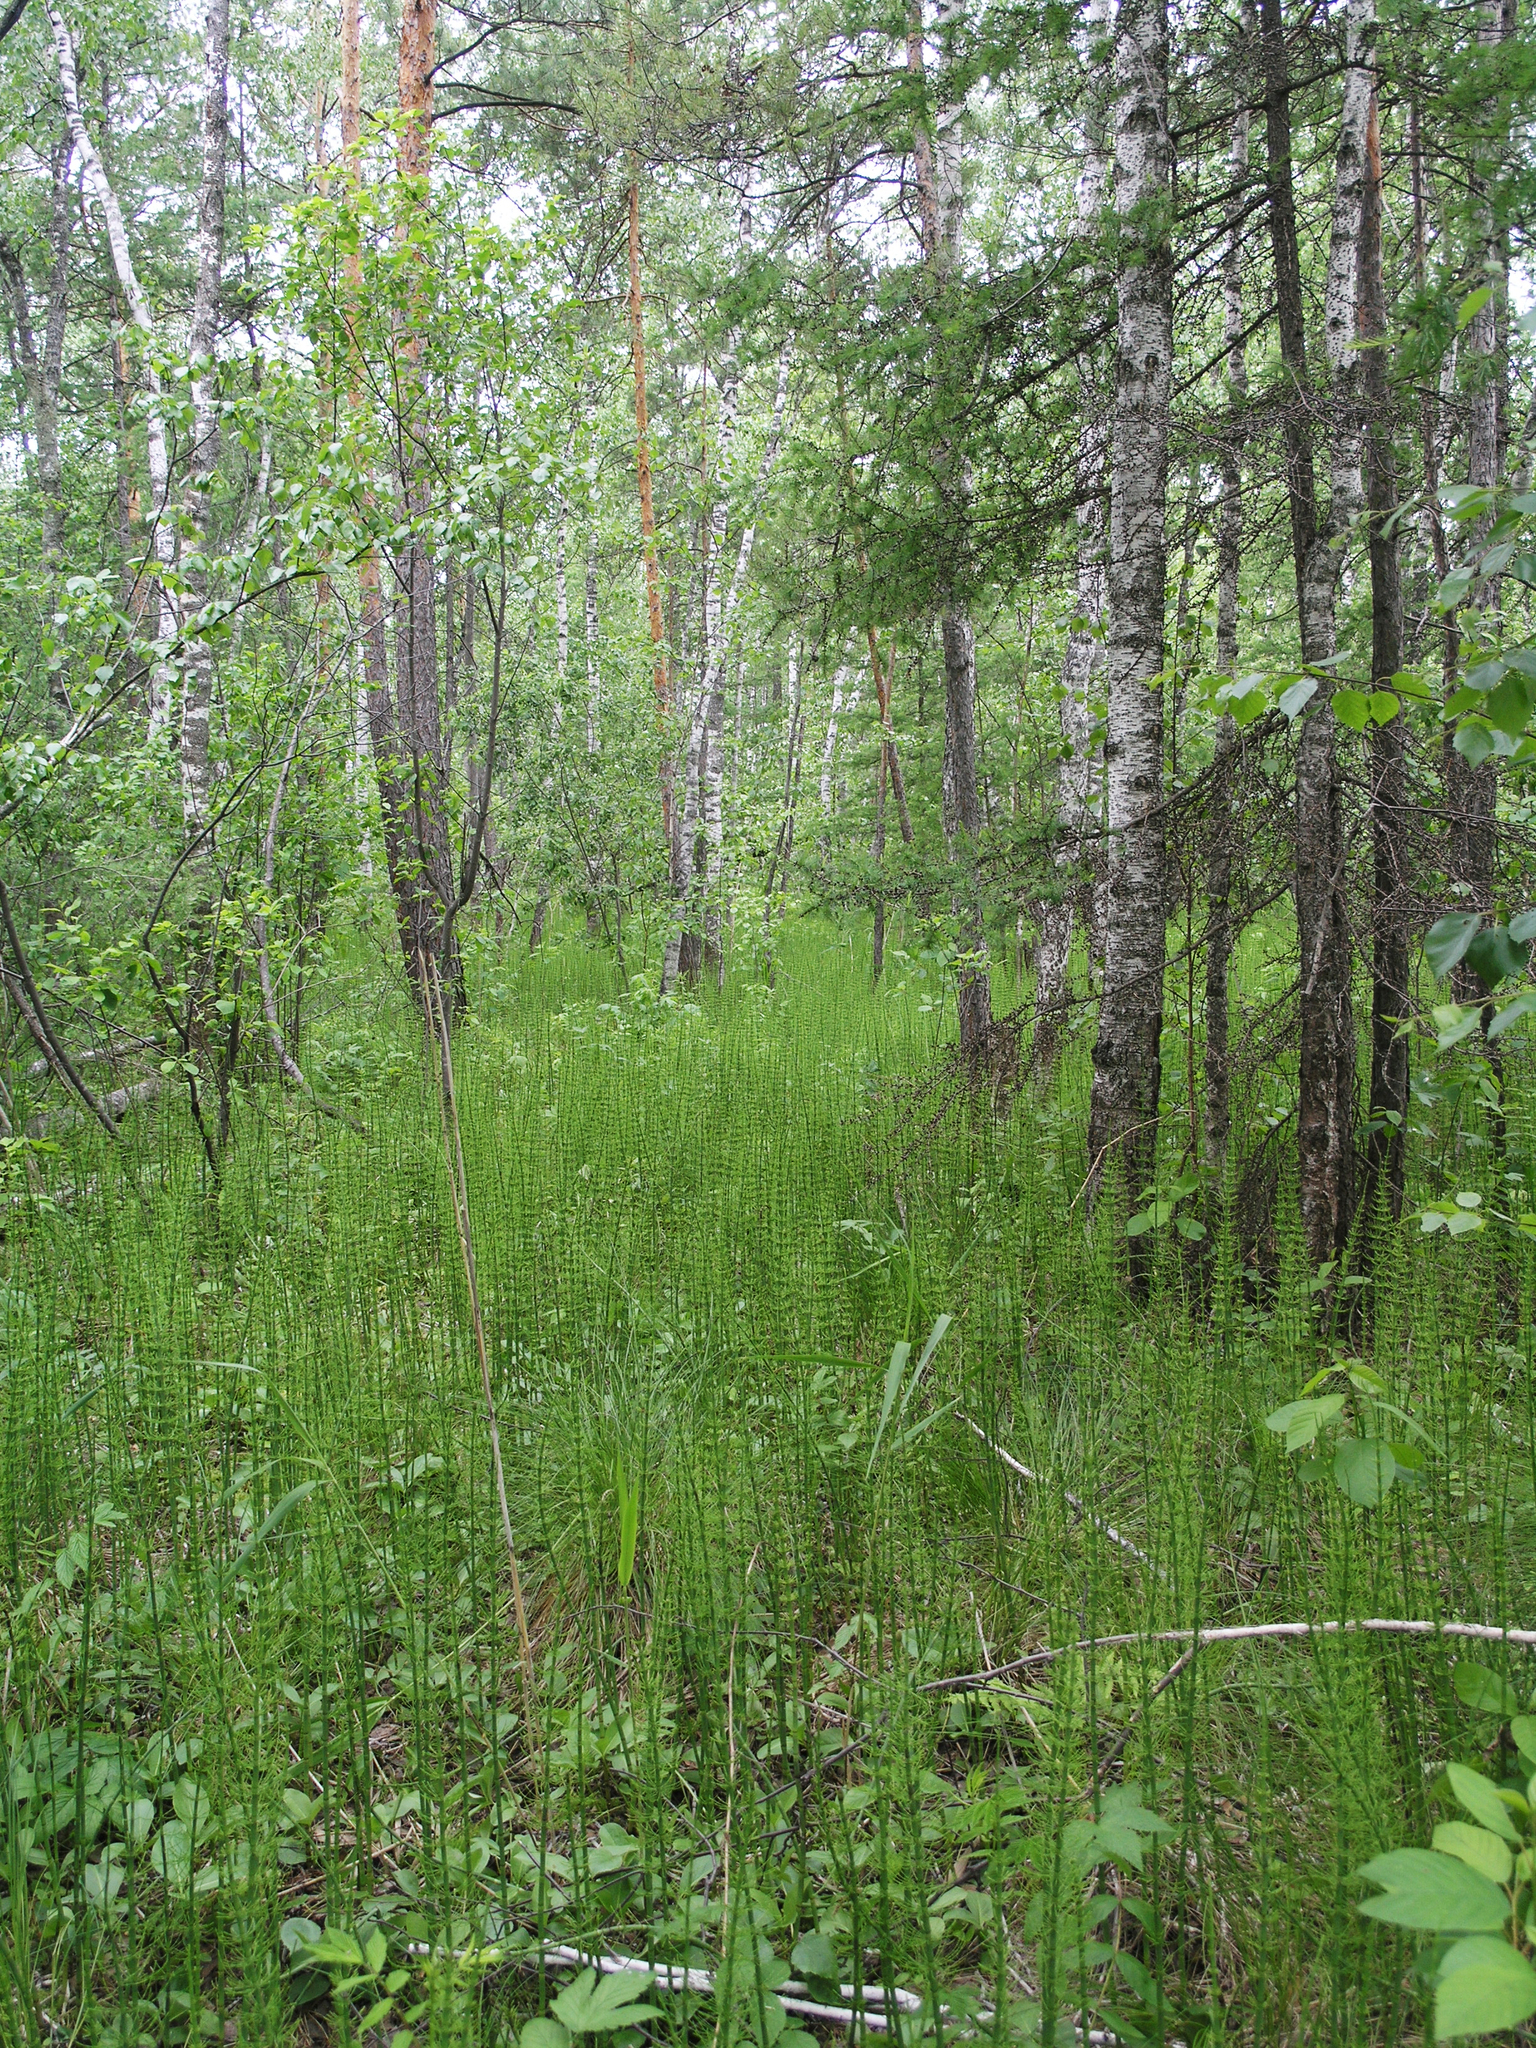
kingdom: Plantae
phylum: Tracheophyta
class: Polypodiopsida
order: Equisetales
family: Equisetaceae
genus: Equisetum
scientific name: Equisetum fluviatile
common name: Water horsetail
